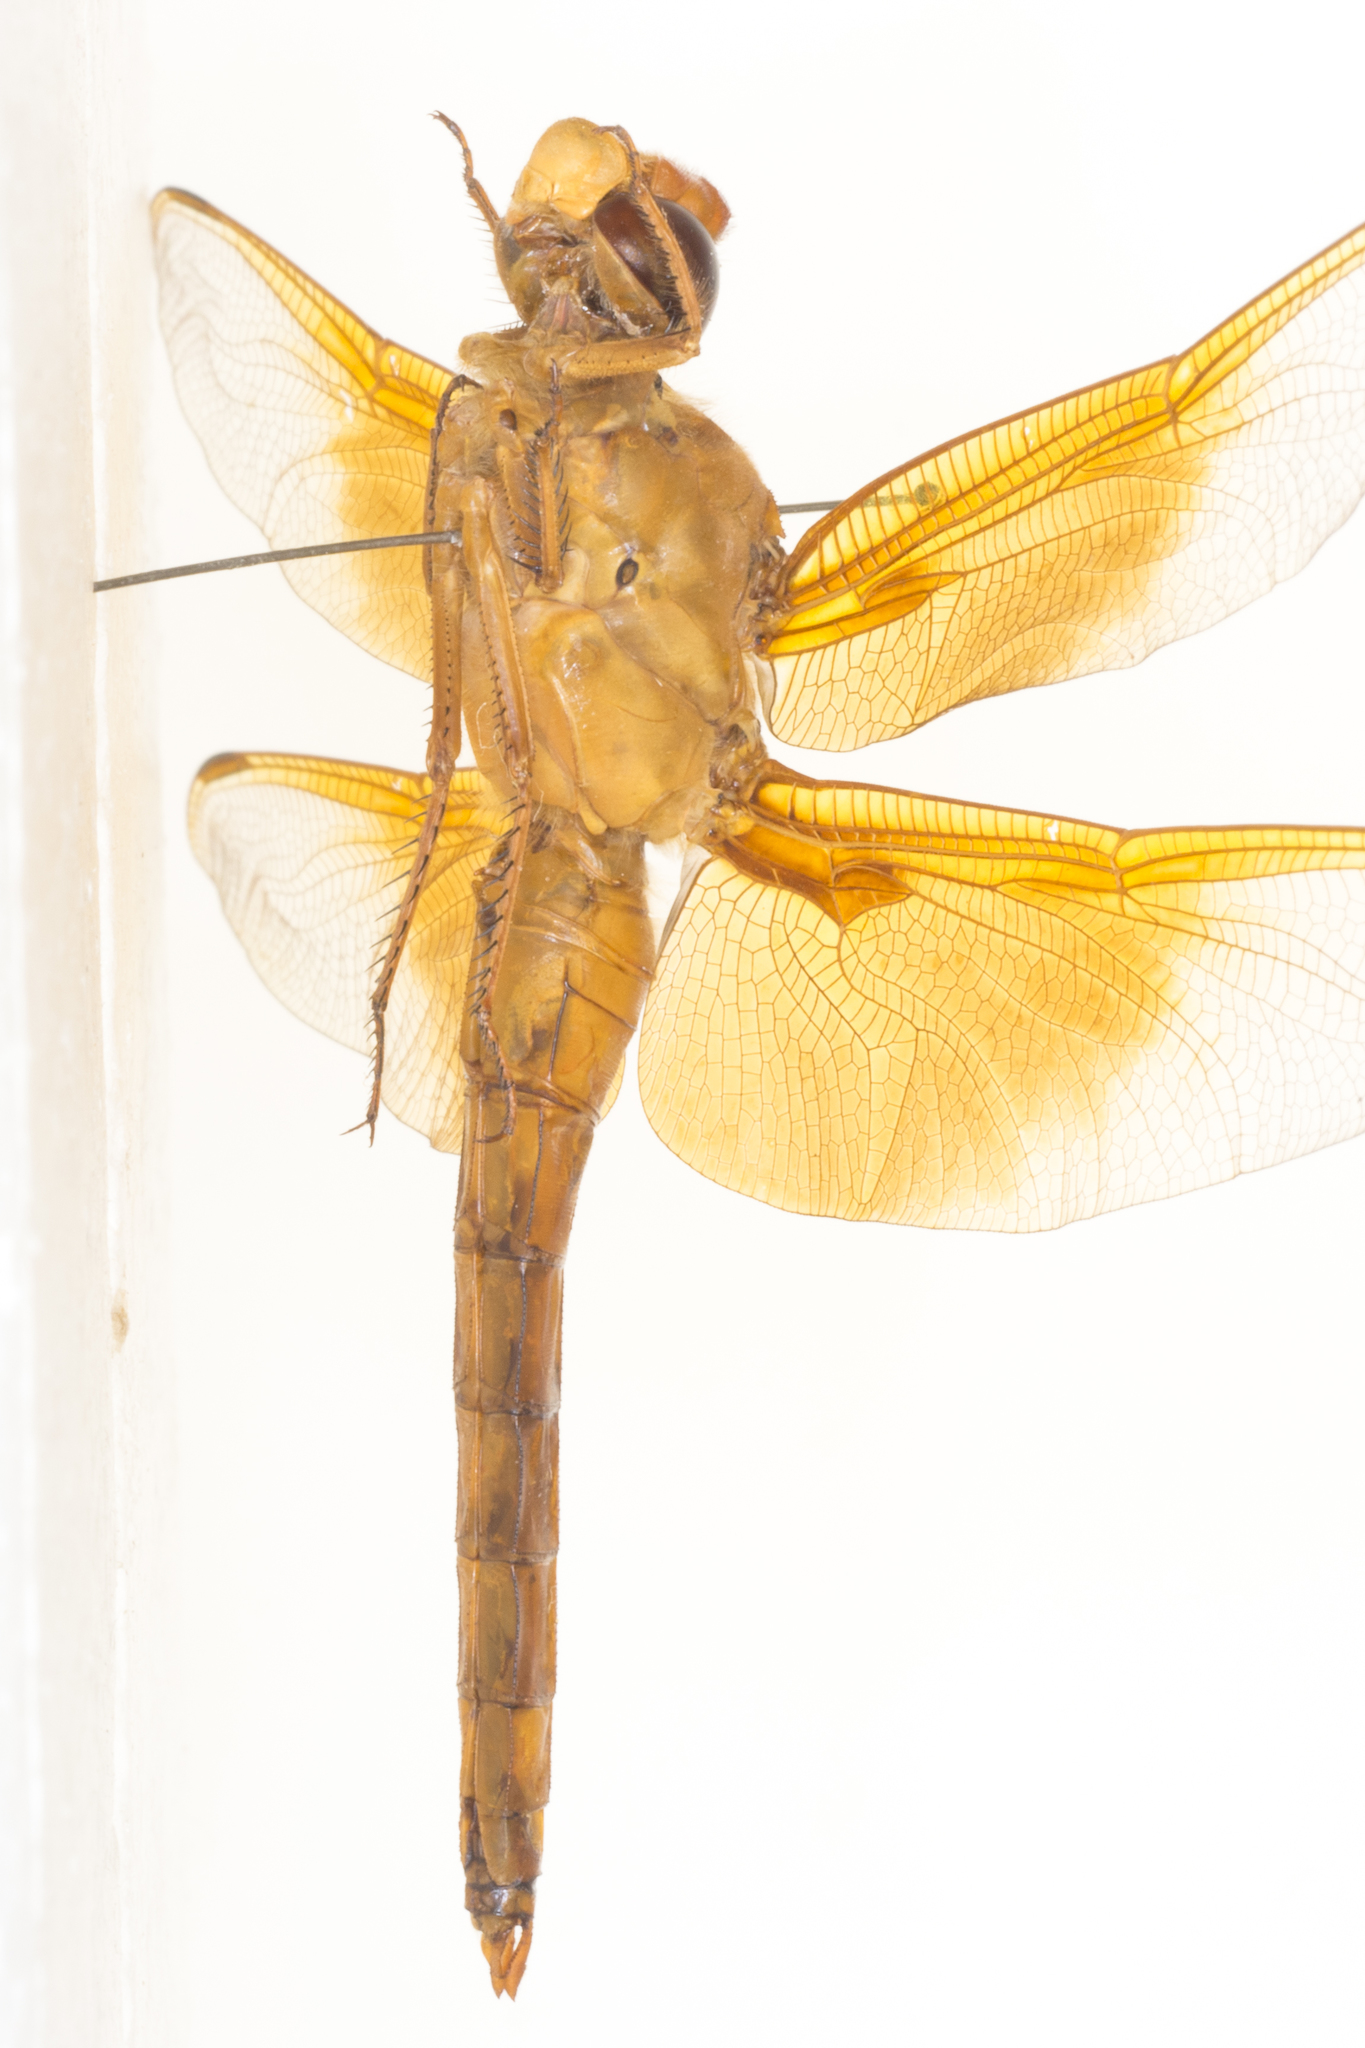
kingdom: Animalia
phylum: Arthropoda
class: Insecta
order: Odonata
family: Libellulidae
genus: Libellula
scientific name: Libellula saturata
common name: Flame skimmer
